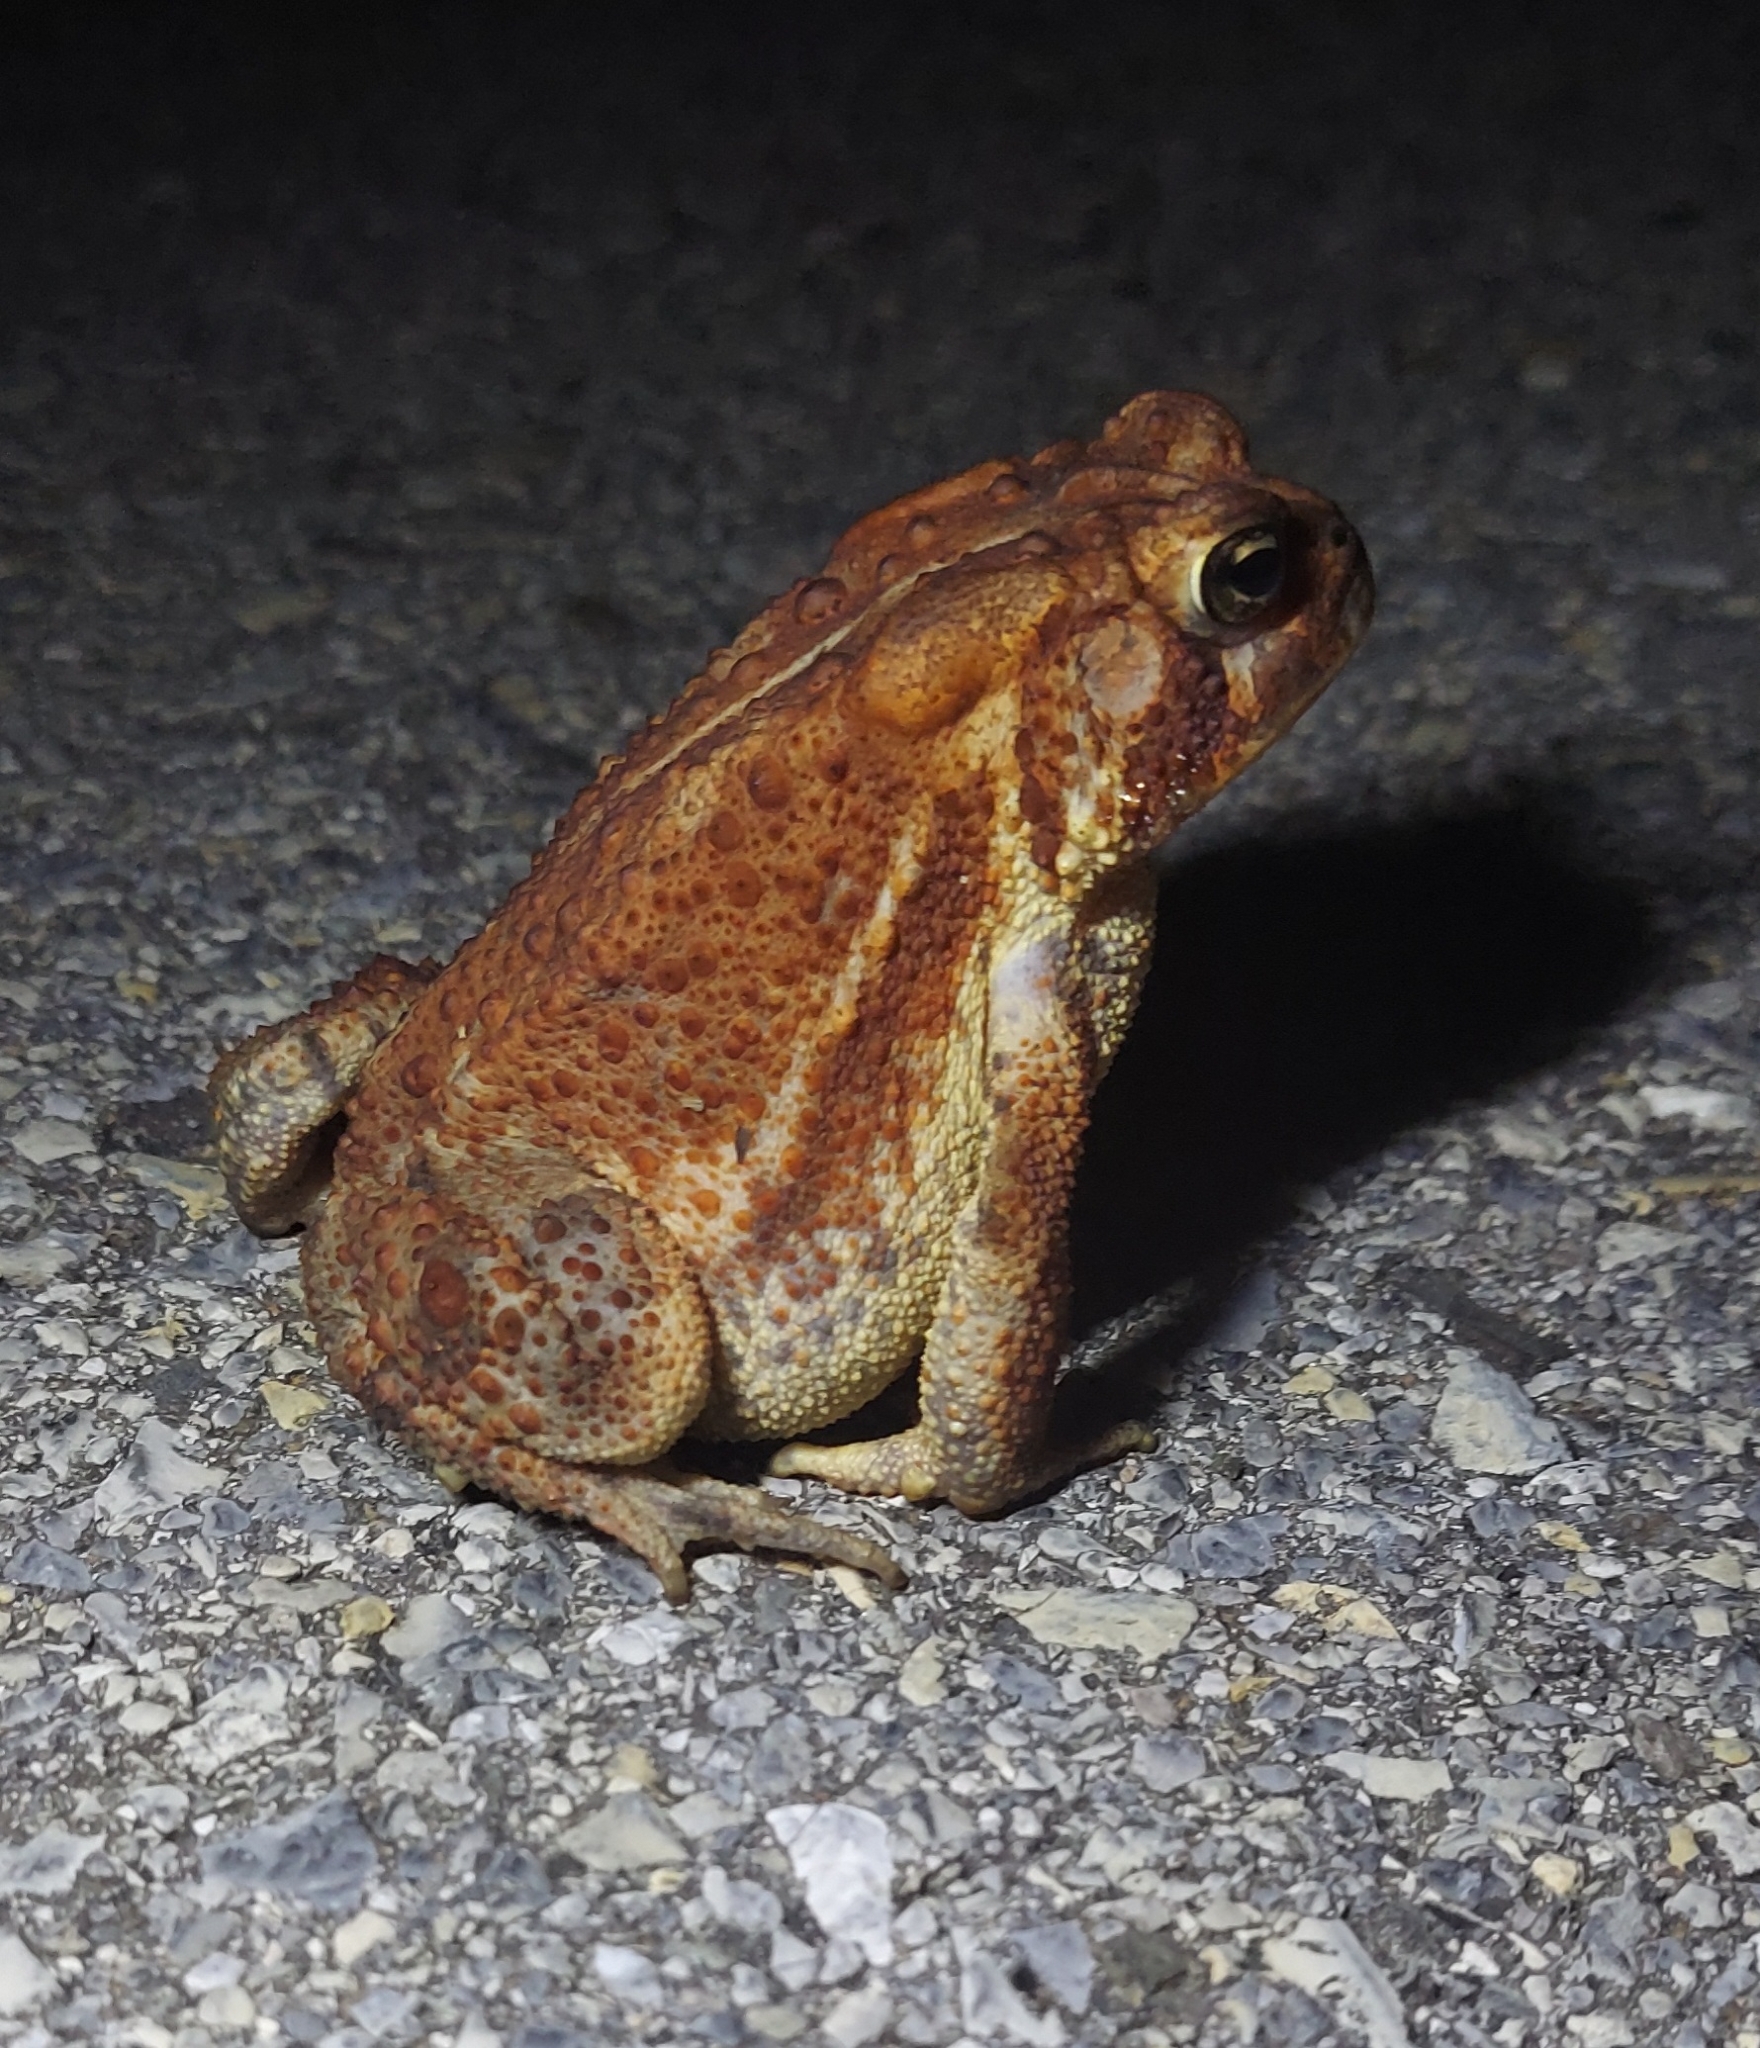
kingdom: Animalia
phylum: Chordata
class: Amphibia
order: Anura
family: Bufonidae
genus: Anaxyrus
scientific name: Anaxyrus americanus
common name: American toad
